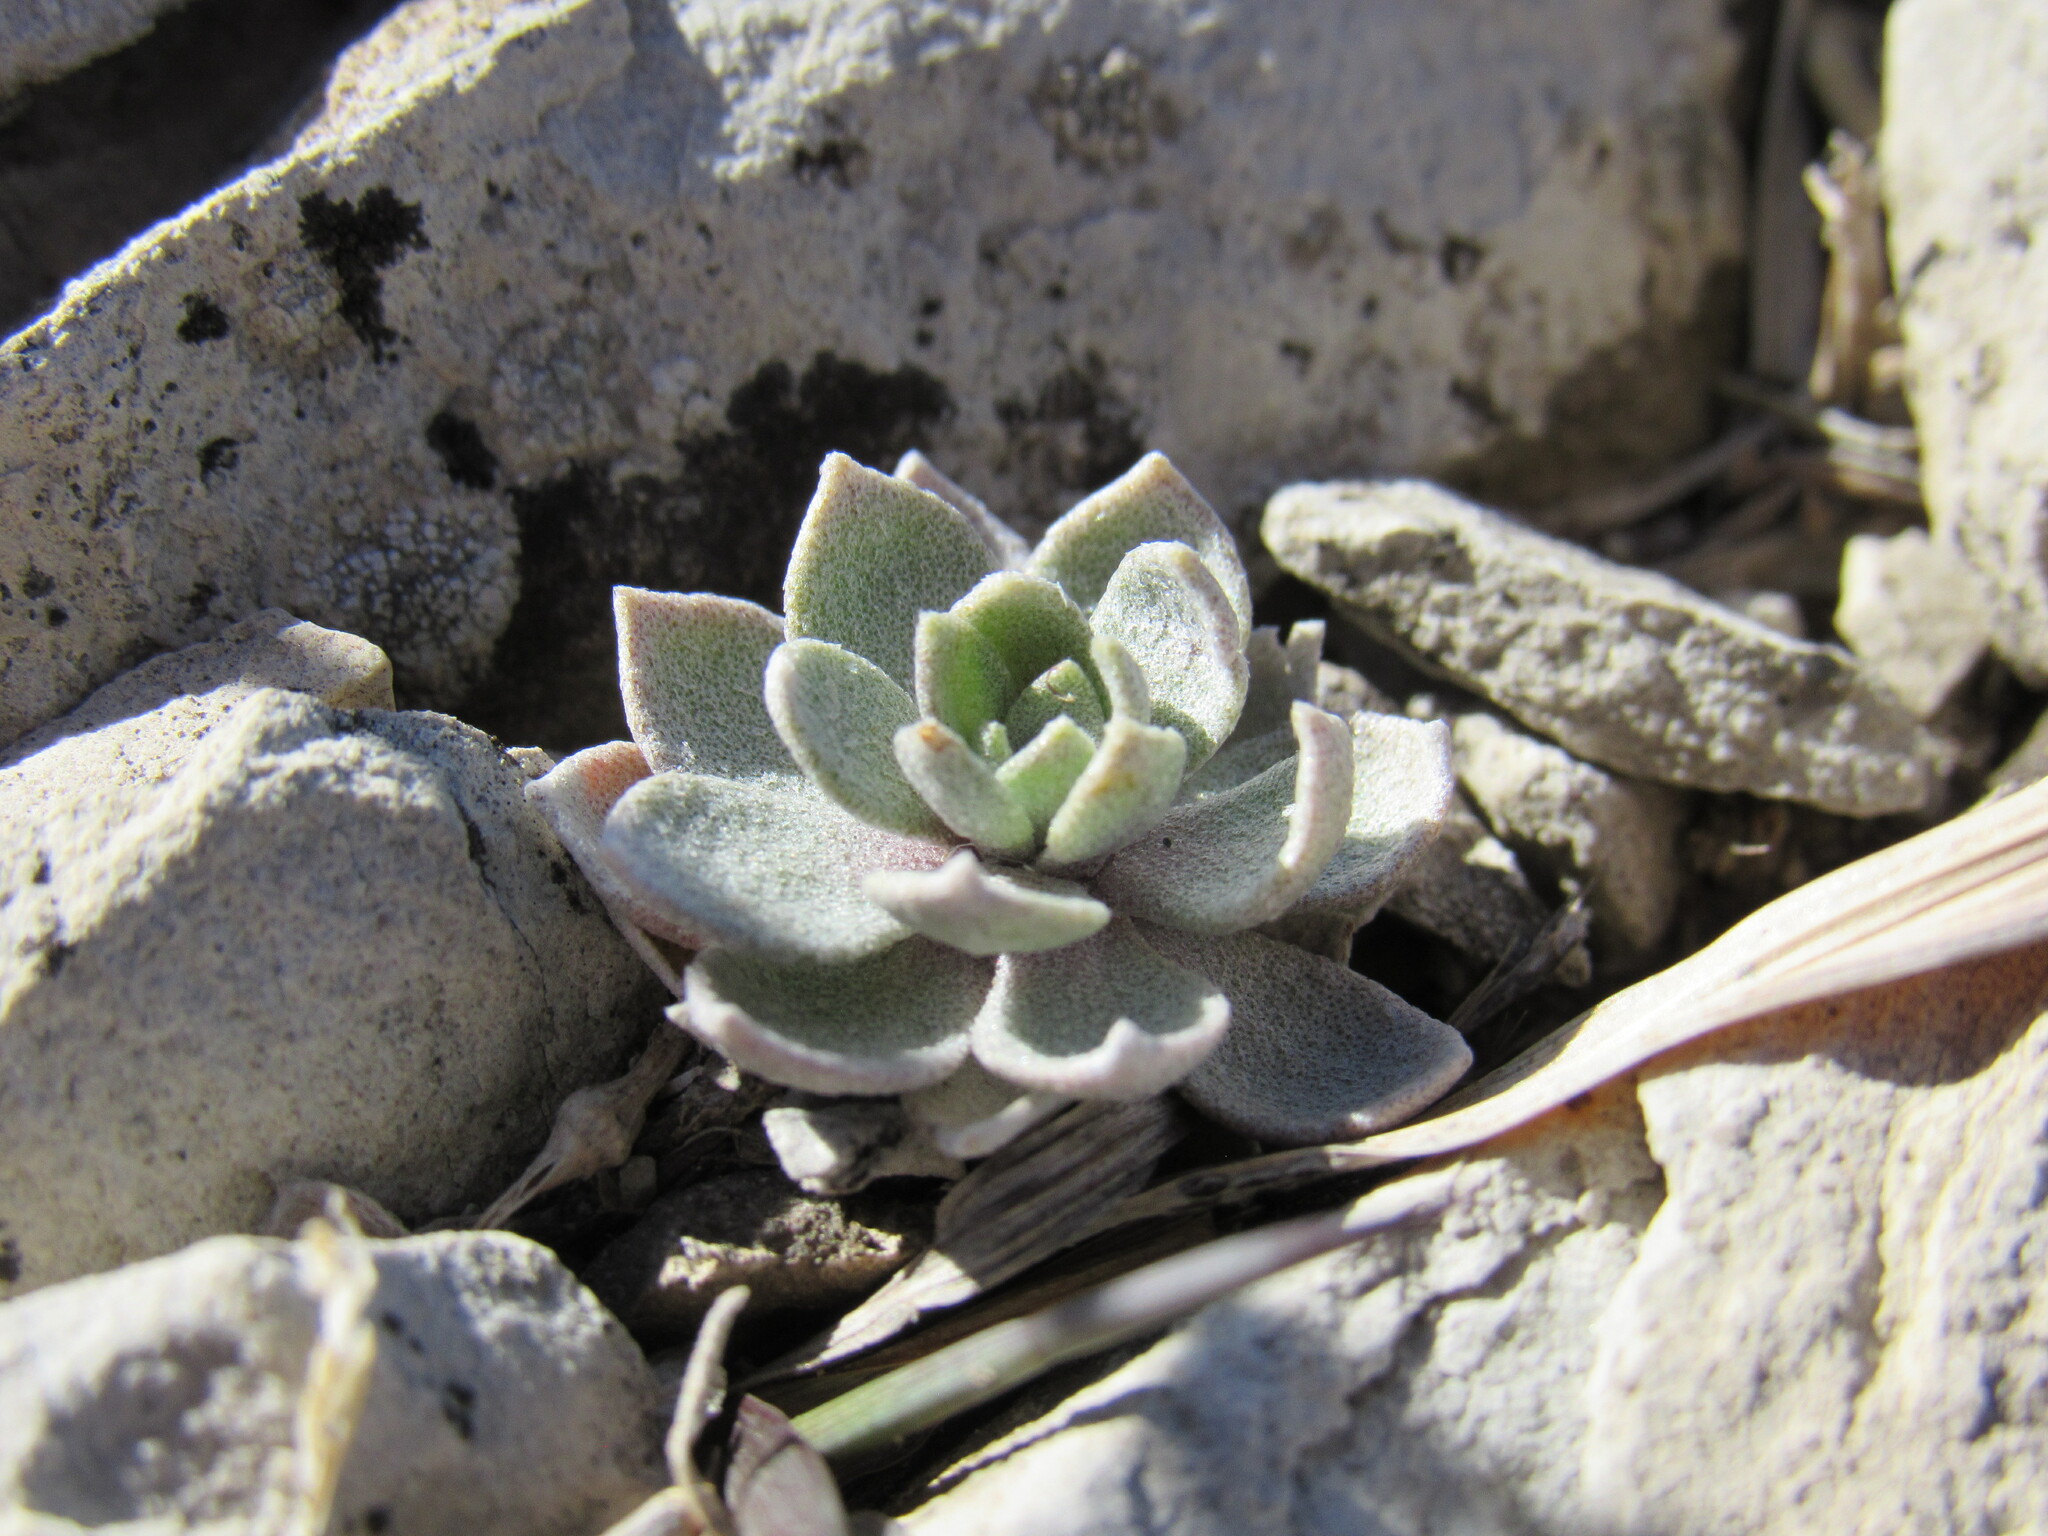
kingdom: Plantae
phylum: Tracheophyta
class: Magnoliopsida
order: Brassicales
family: Brassicaceae
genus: Physaria
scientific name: Physaria bellii
